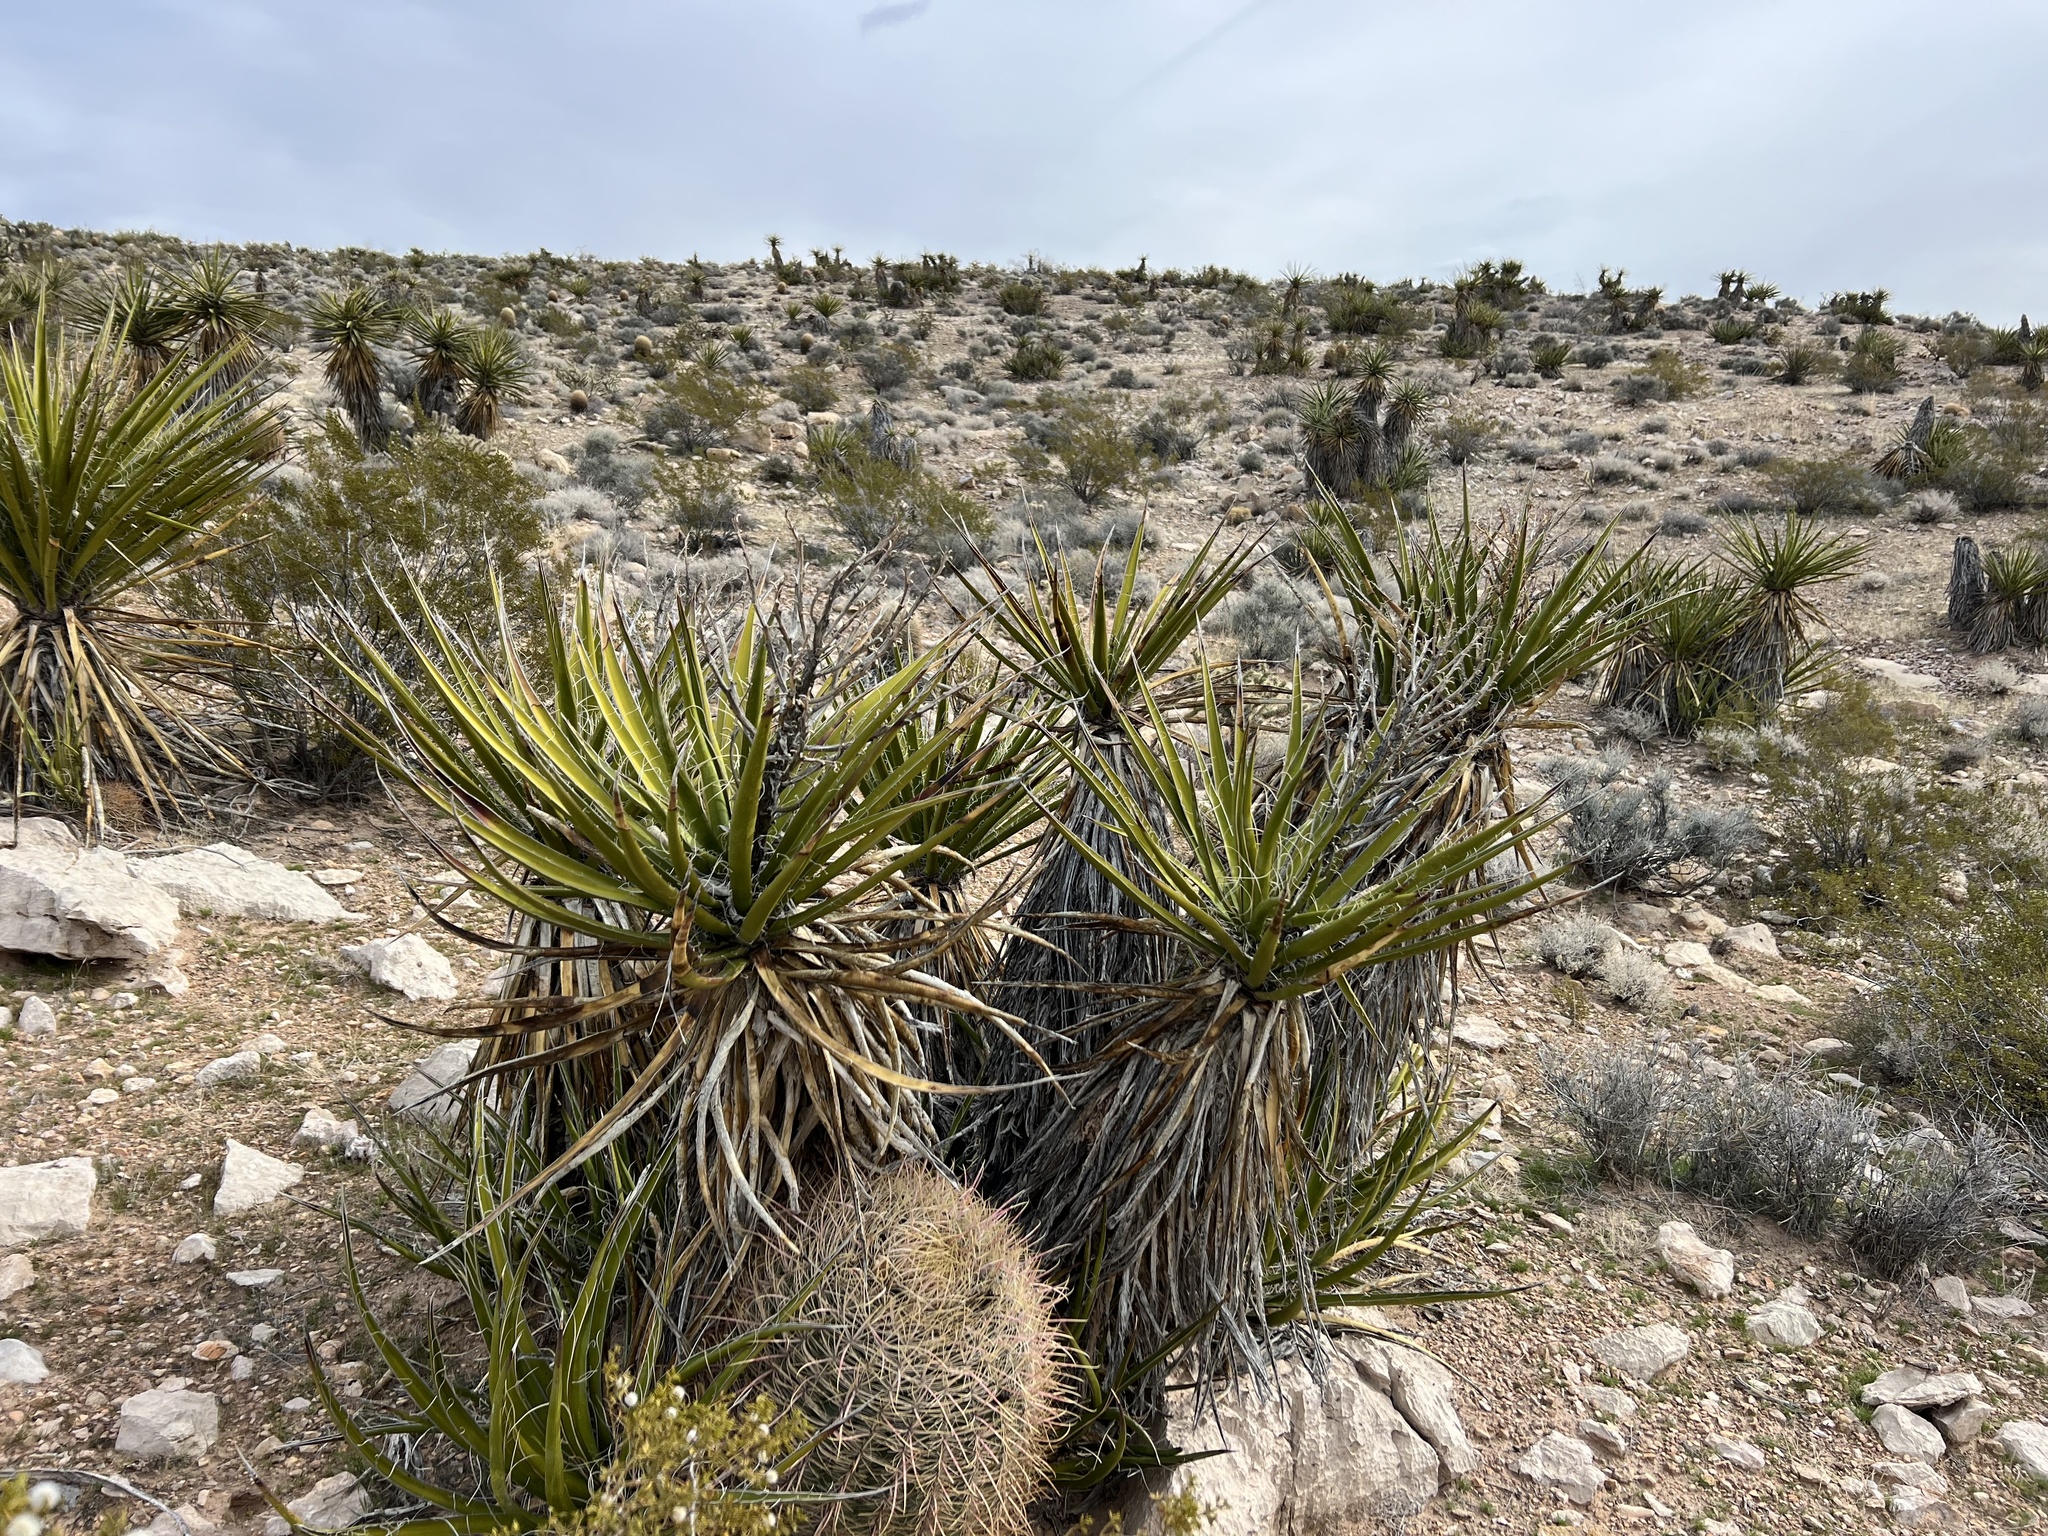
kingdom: Plantae
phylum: Tracheophyta
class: Liliopsida
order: Asparagales
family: Asparagaceae
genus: Yucca
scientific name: Yucca schidigera
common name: Mojave yucca
